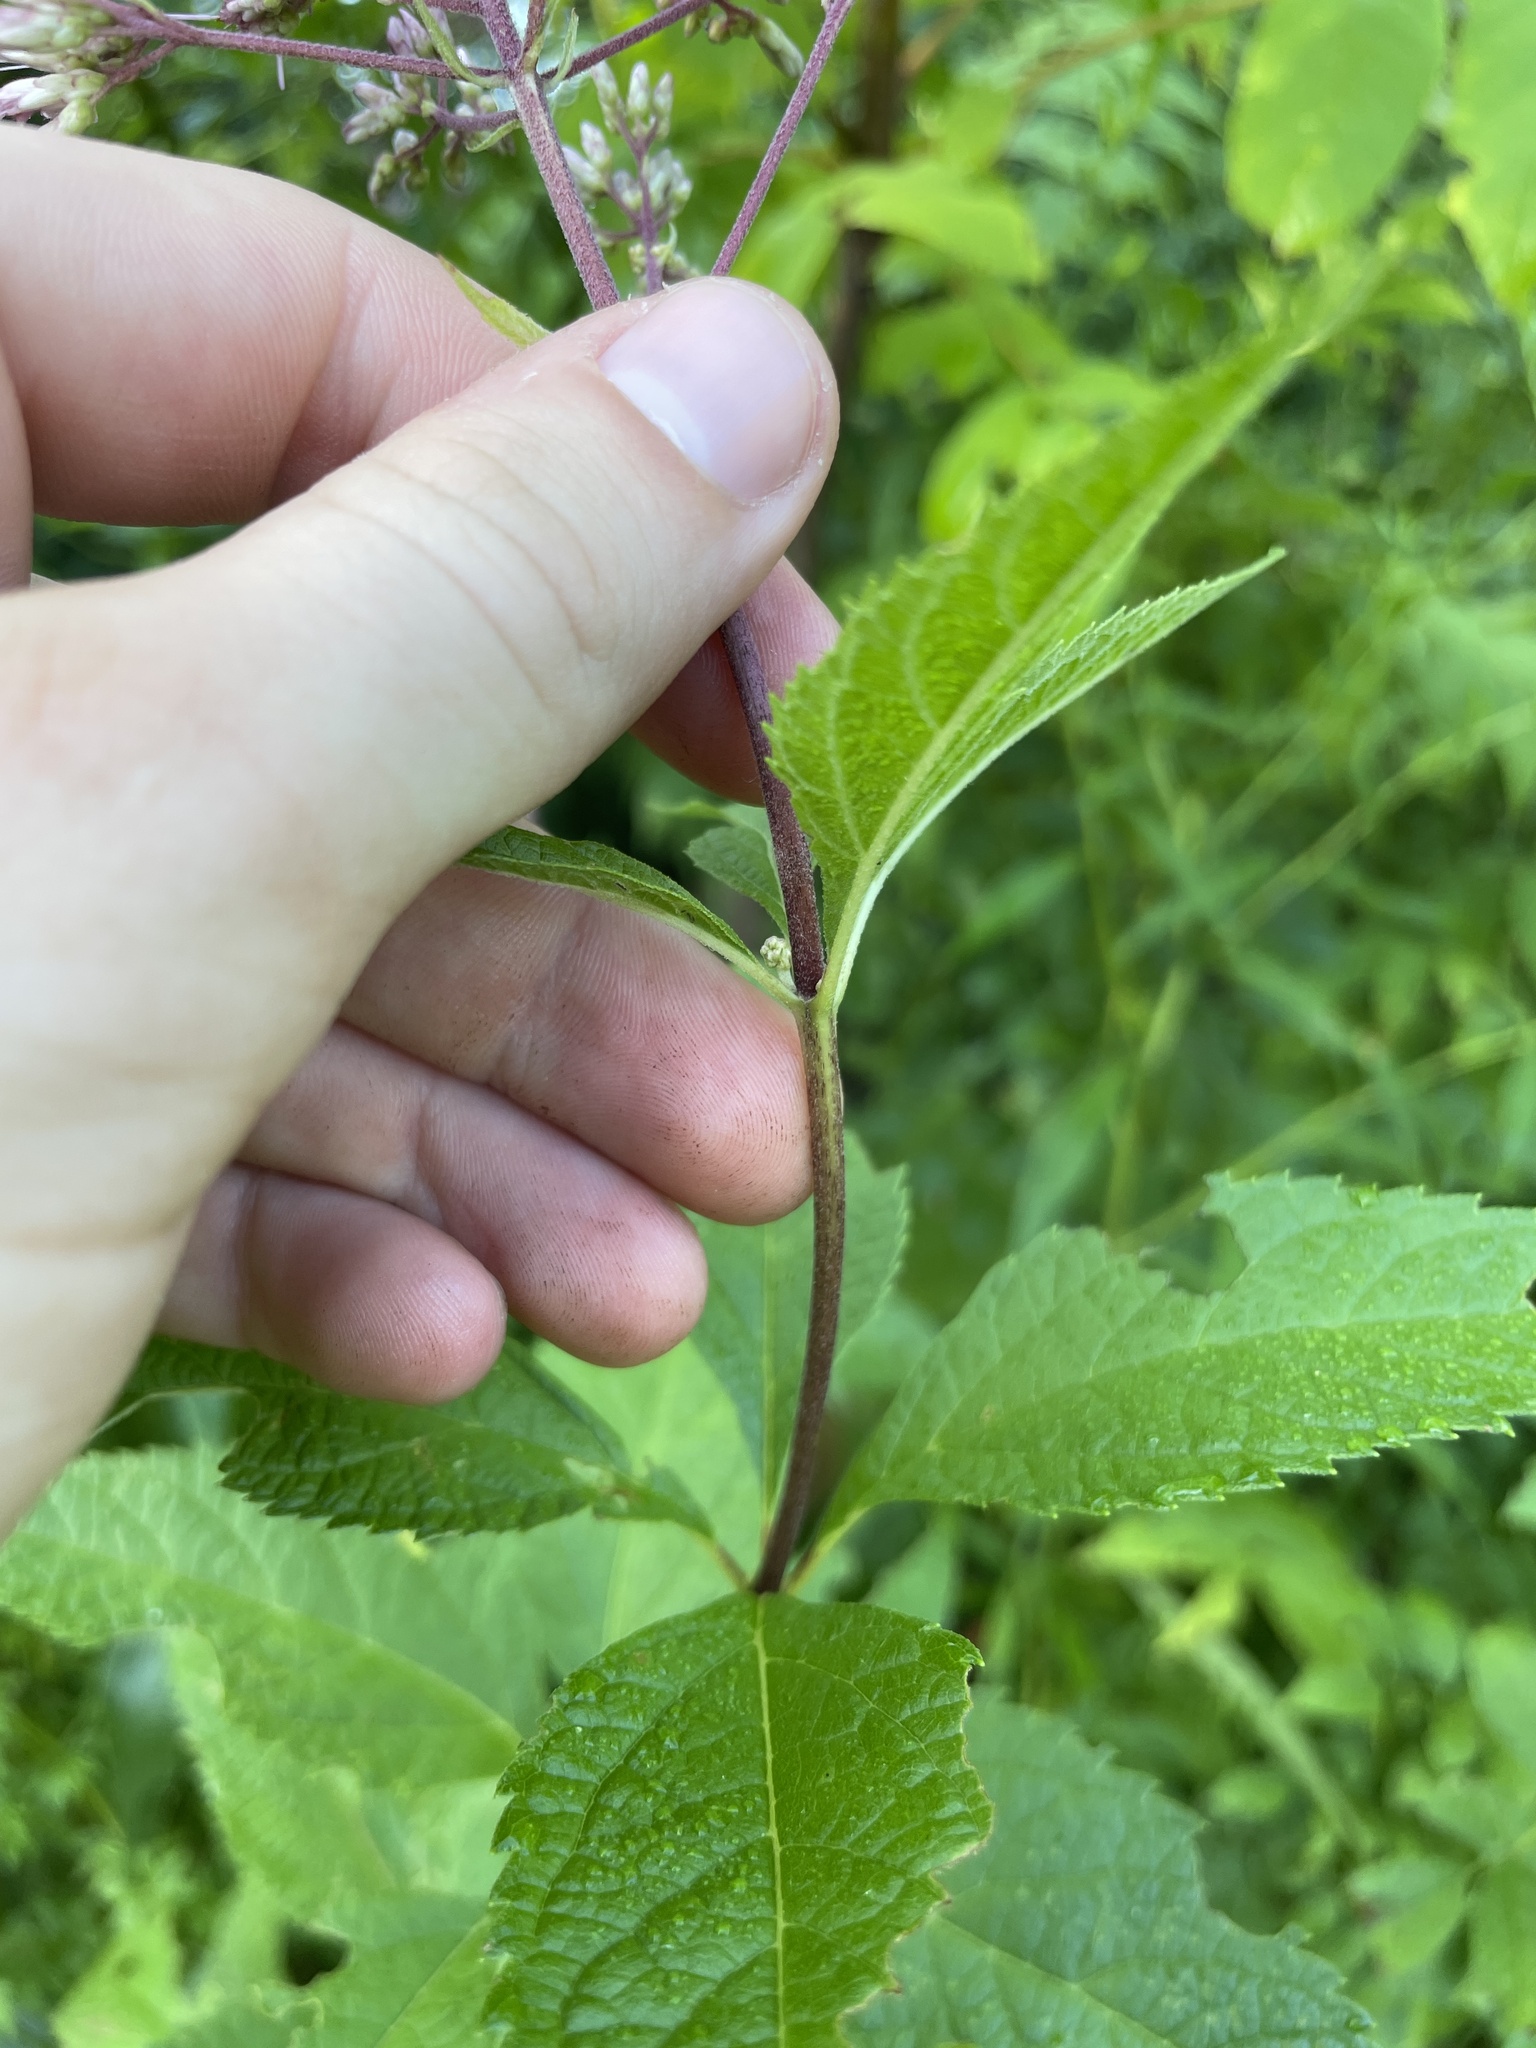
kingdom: Plantae
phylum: Tracheophyta
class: Magnoliopsida
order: Asterales
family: Asteraceae
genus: Eutrochium
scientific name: Eutrochium dubium
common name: Coastal plain joe pye weed
